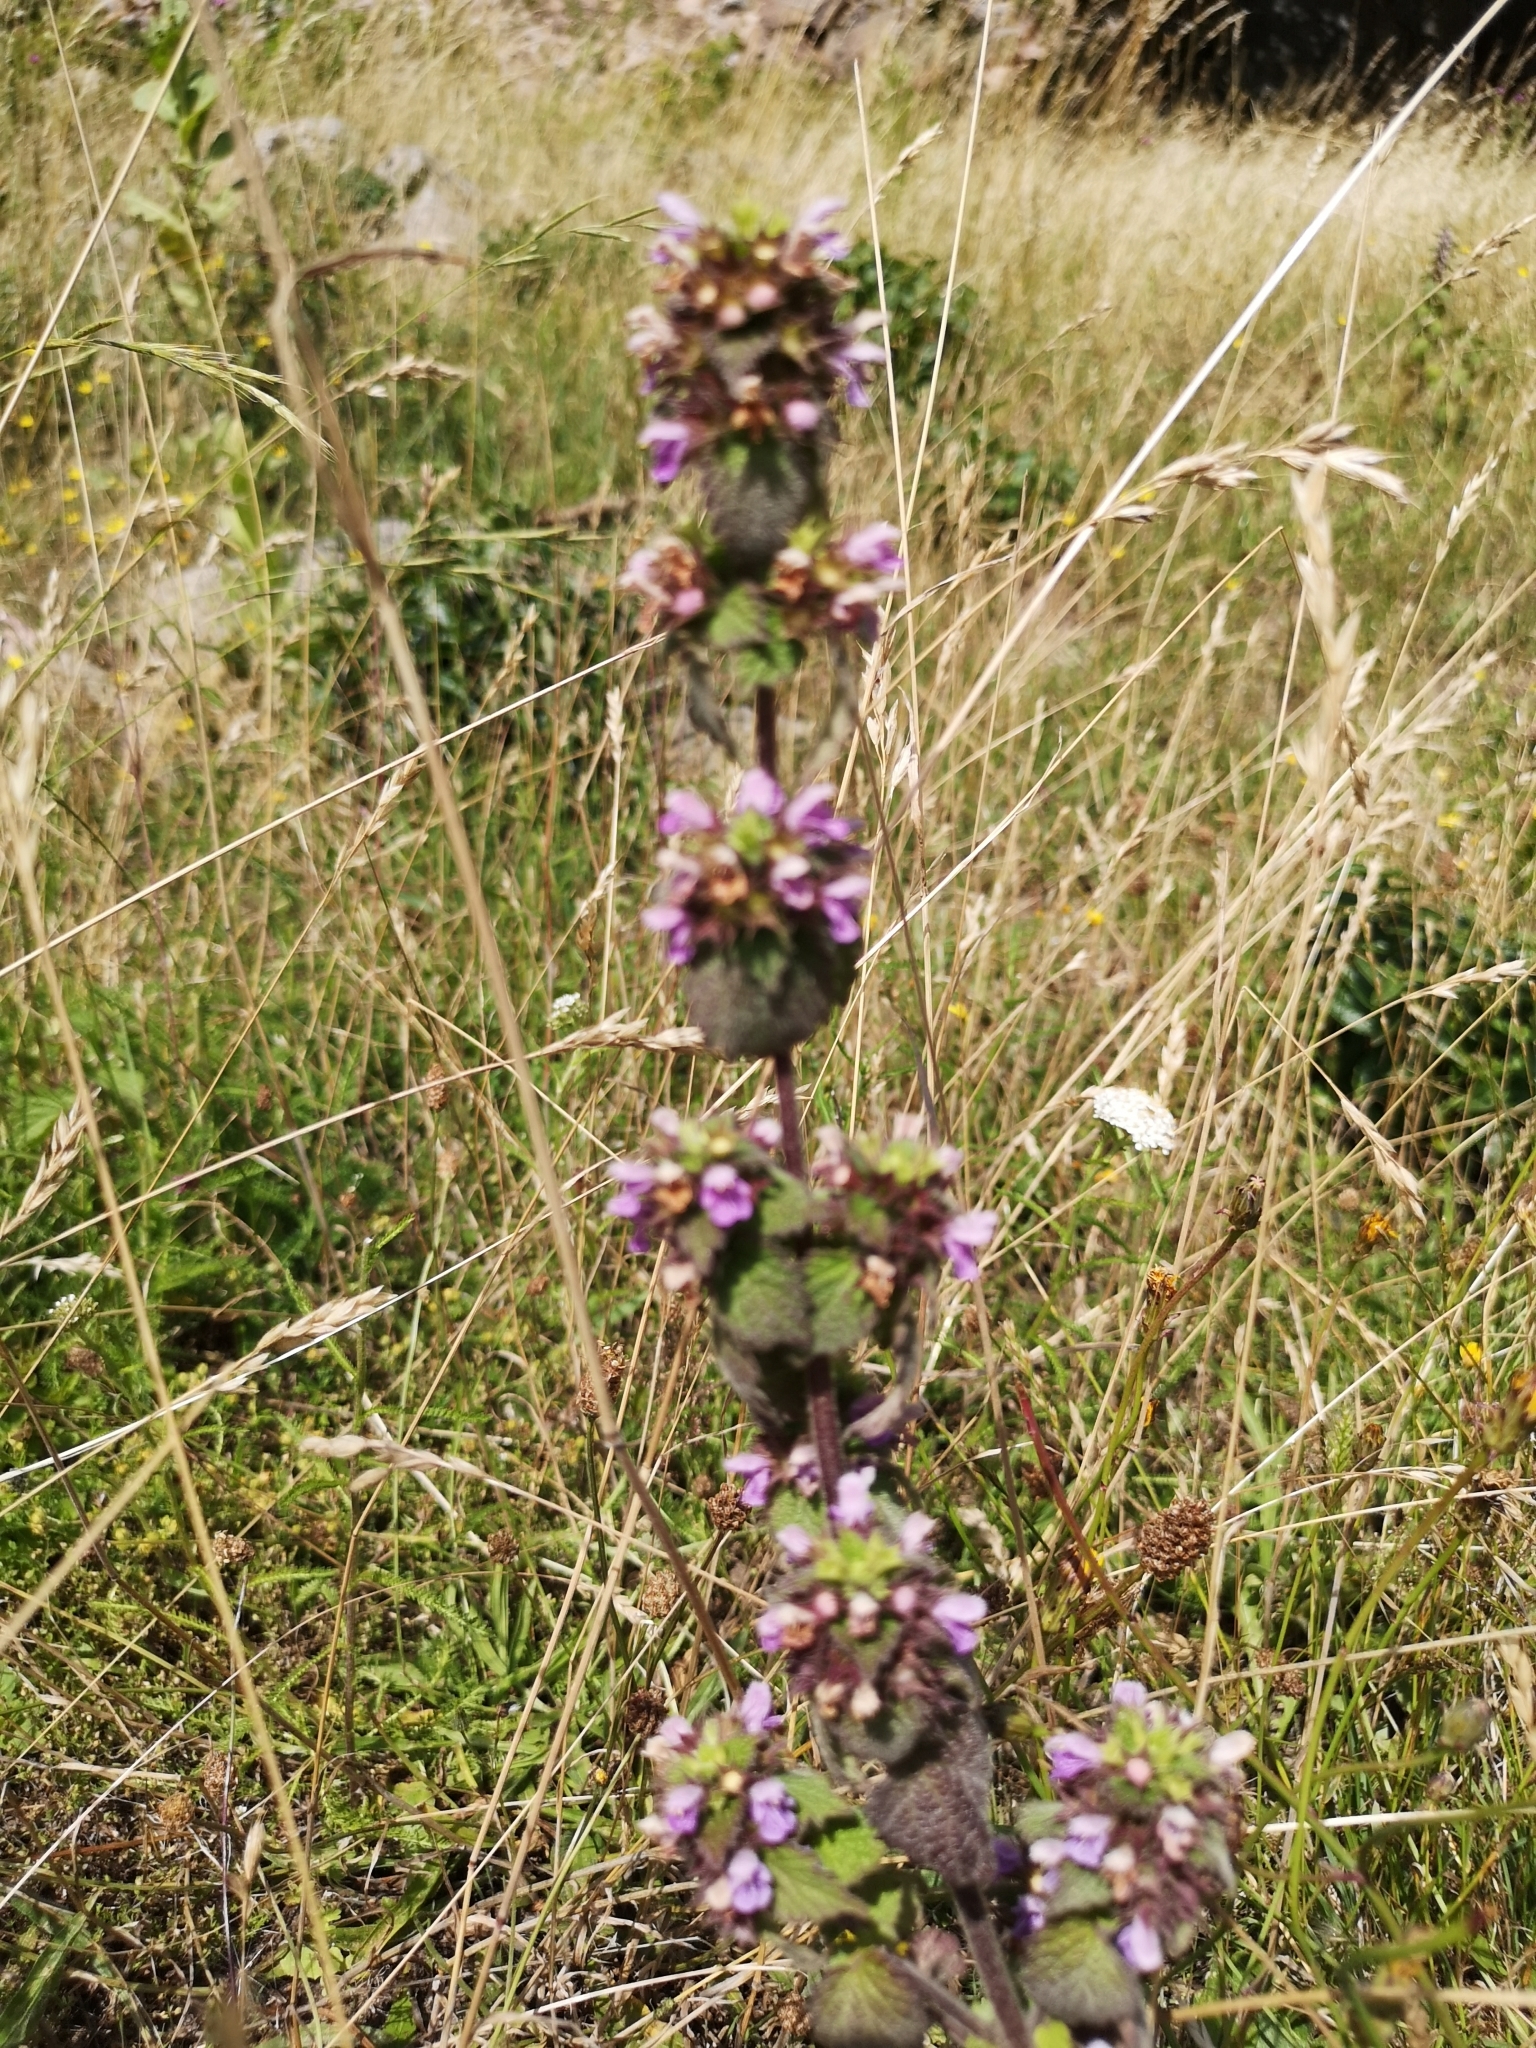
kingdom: Plantae
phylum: Tracheophyta
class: Magnoliopsida
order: Lamiales
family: Lamiaceae
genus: Ballota
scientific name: Ballota nigra
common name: Black horehound
